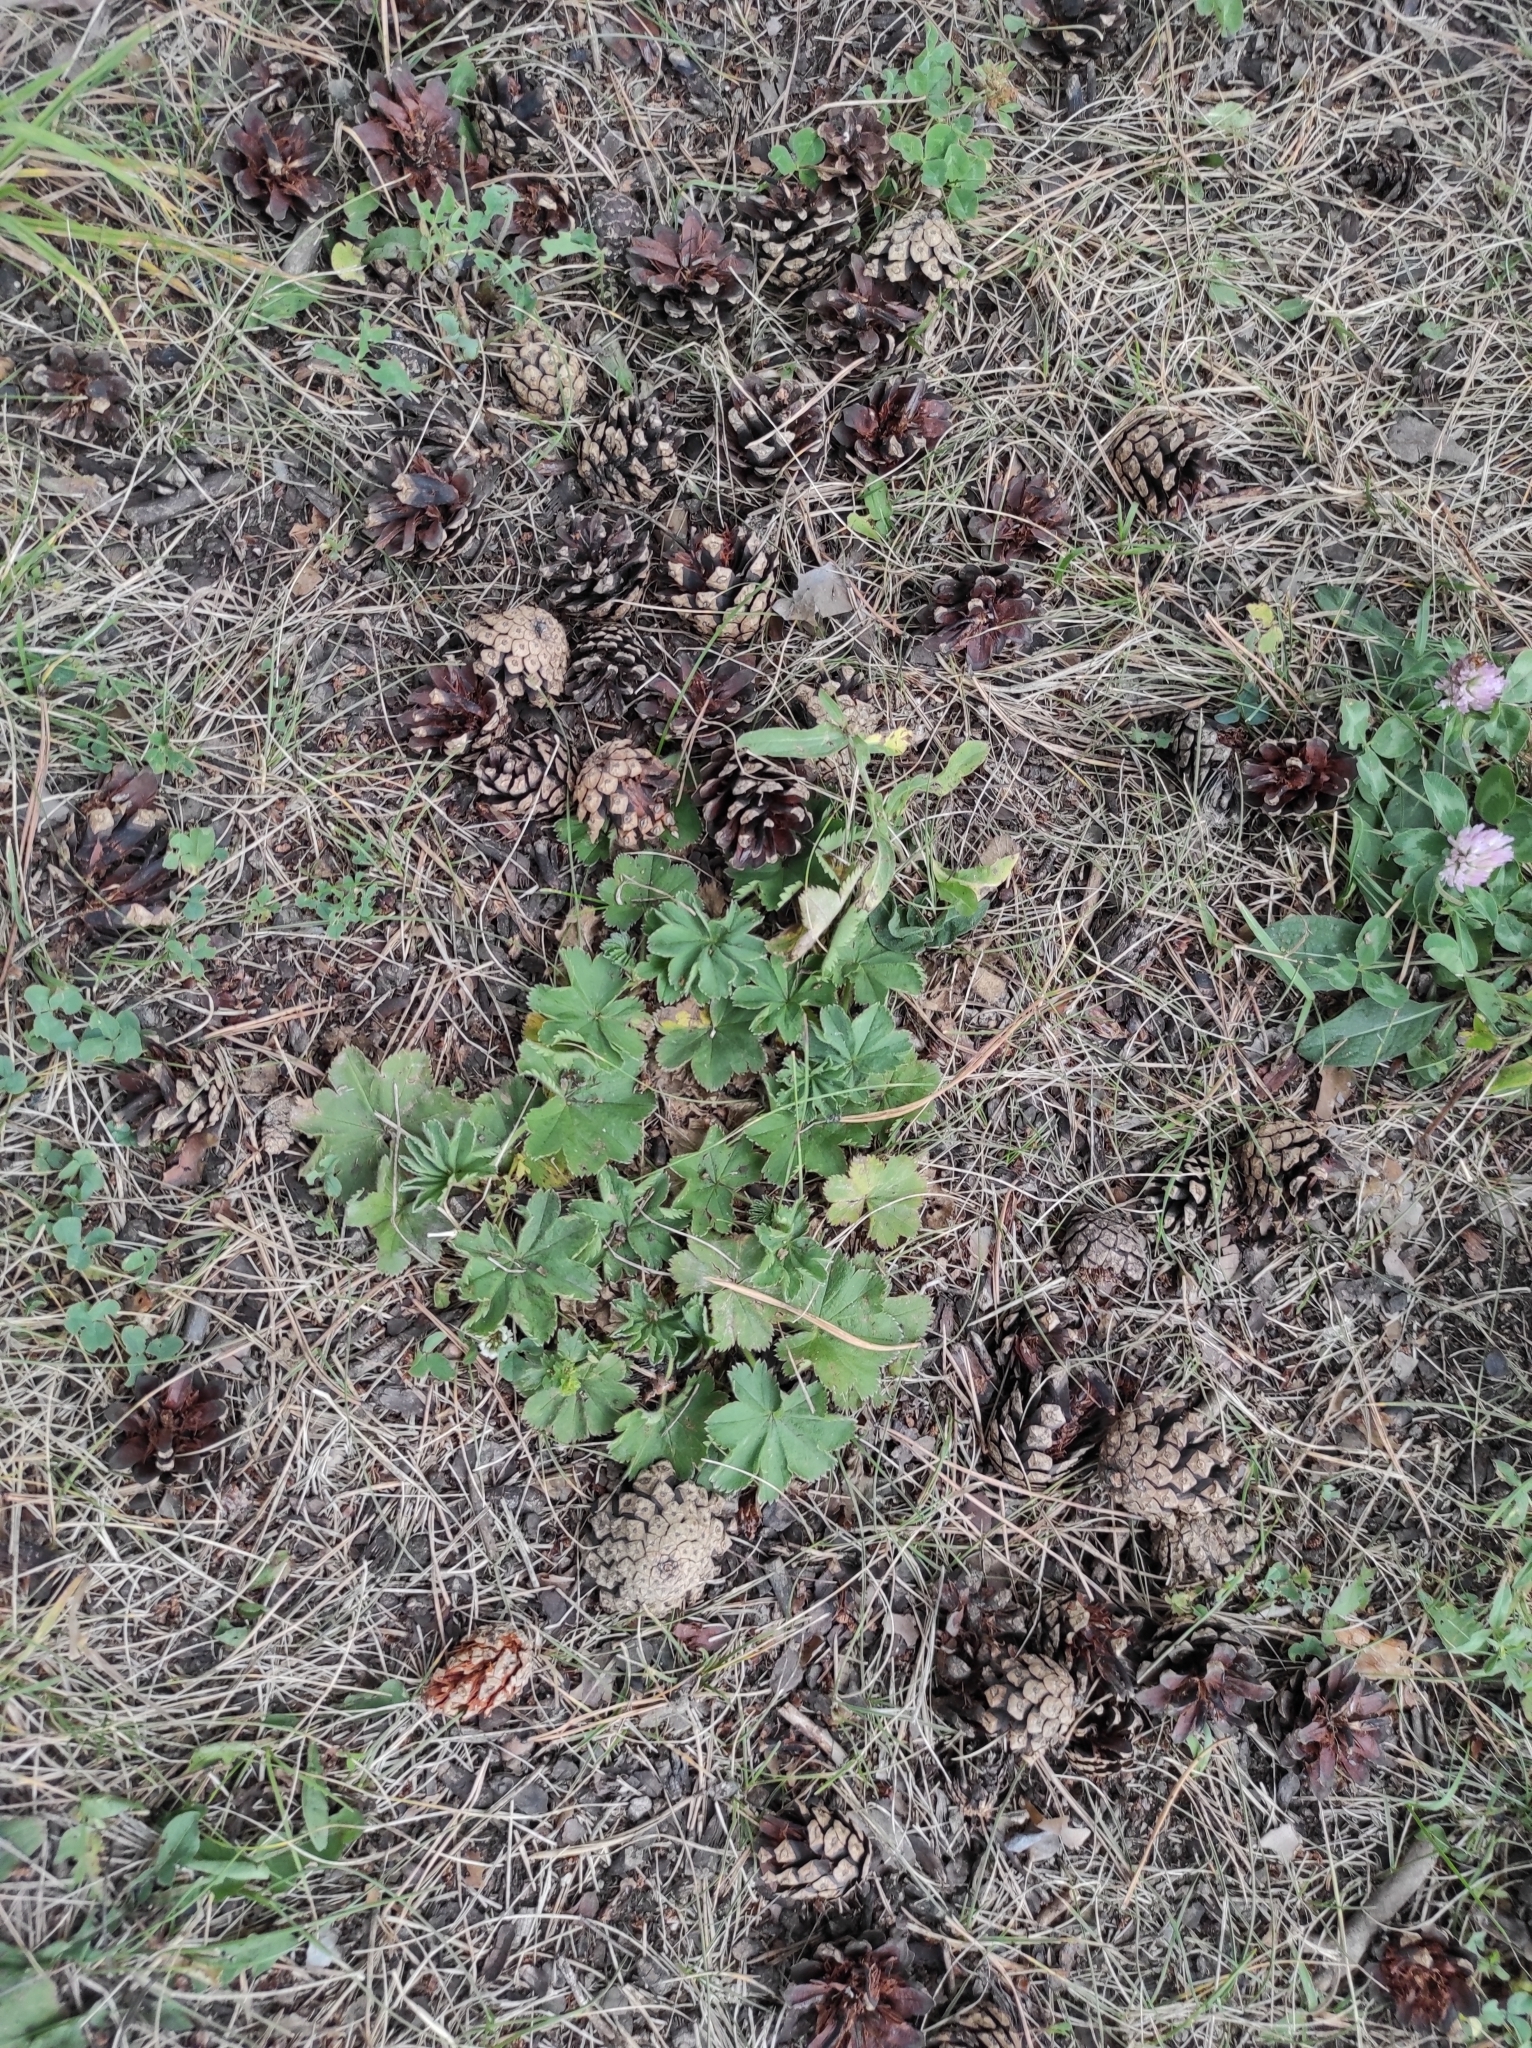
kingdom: Plantae
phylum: Tracheophyta
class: Magnoliopsida
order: Rosales
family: Rosaceae
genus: Alchemilla
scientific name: Alchemilla
